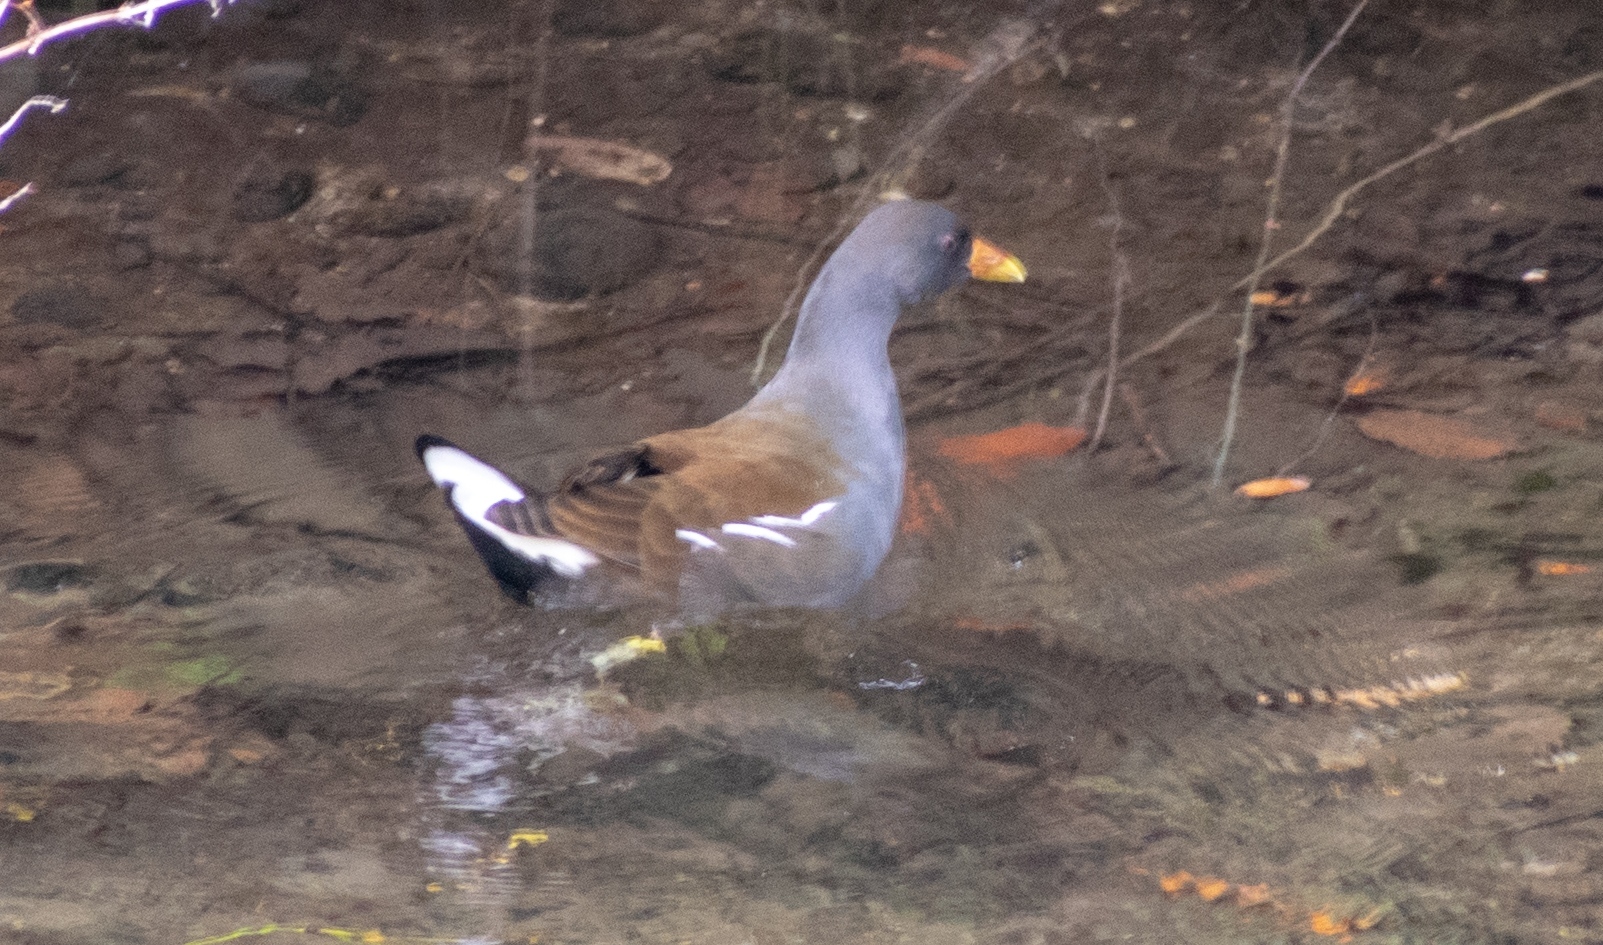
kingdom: Animalia
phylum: Chordata
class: Aves
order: Gruiformes
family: Rallidae
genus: Gallinula
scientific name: Gallinula chloropus
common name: Common moorhen
